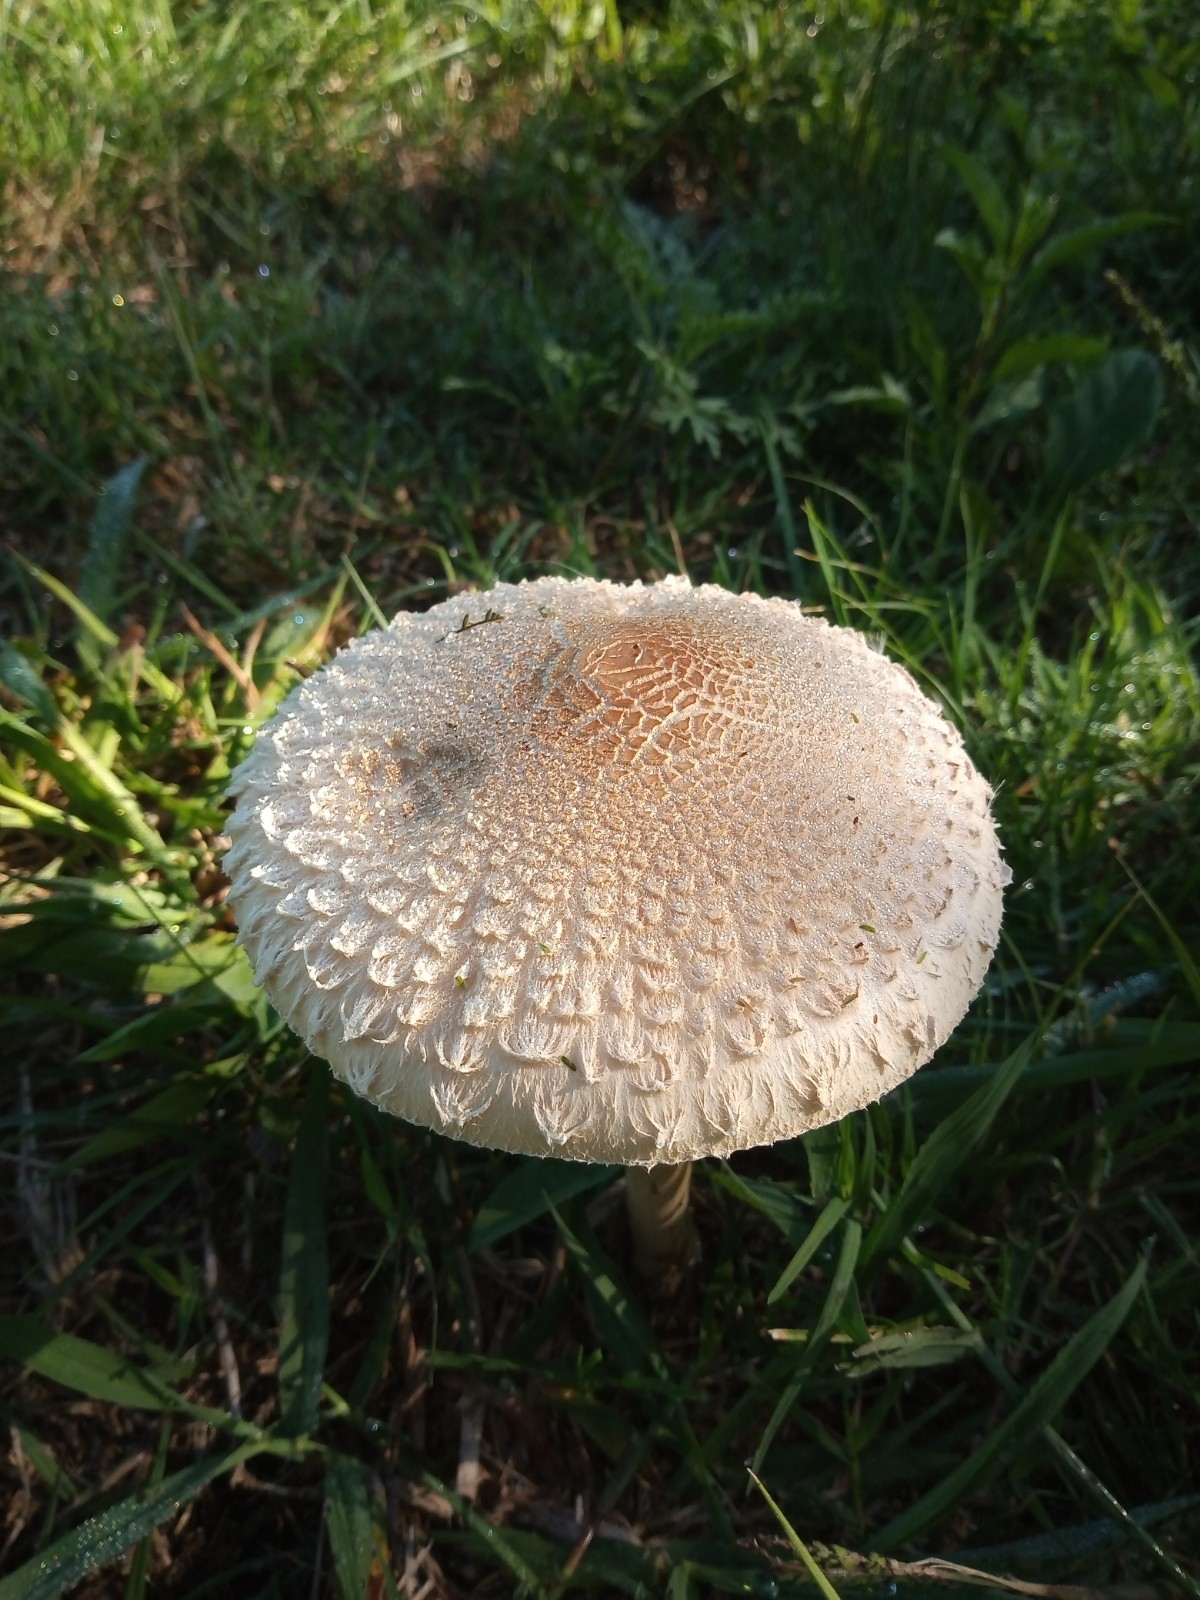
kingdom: Fungi
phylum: Basidiomycota
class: Agaricomycetes
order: Agaricales
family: Agaricaceae
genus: Macrolepiota
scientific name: Macrolepiota bonaerensis
